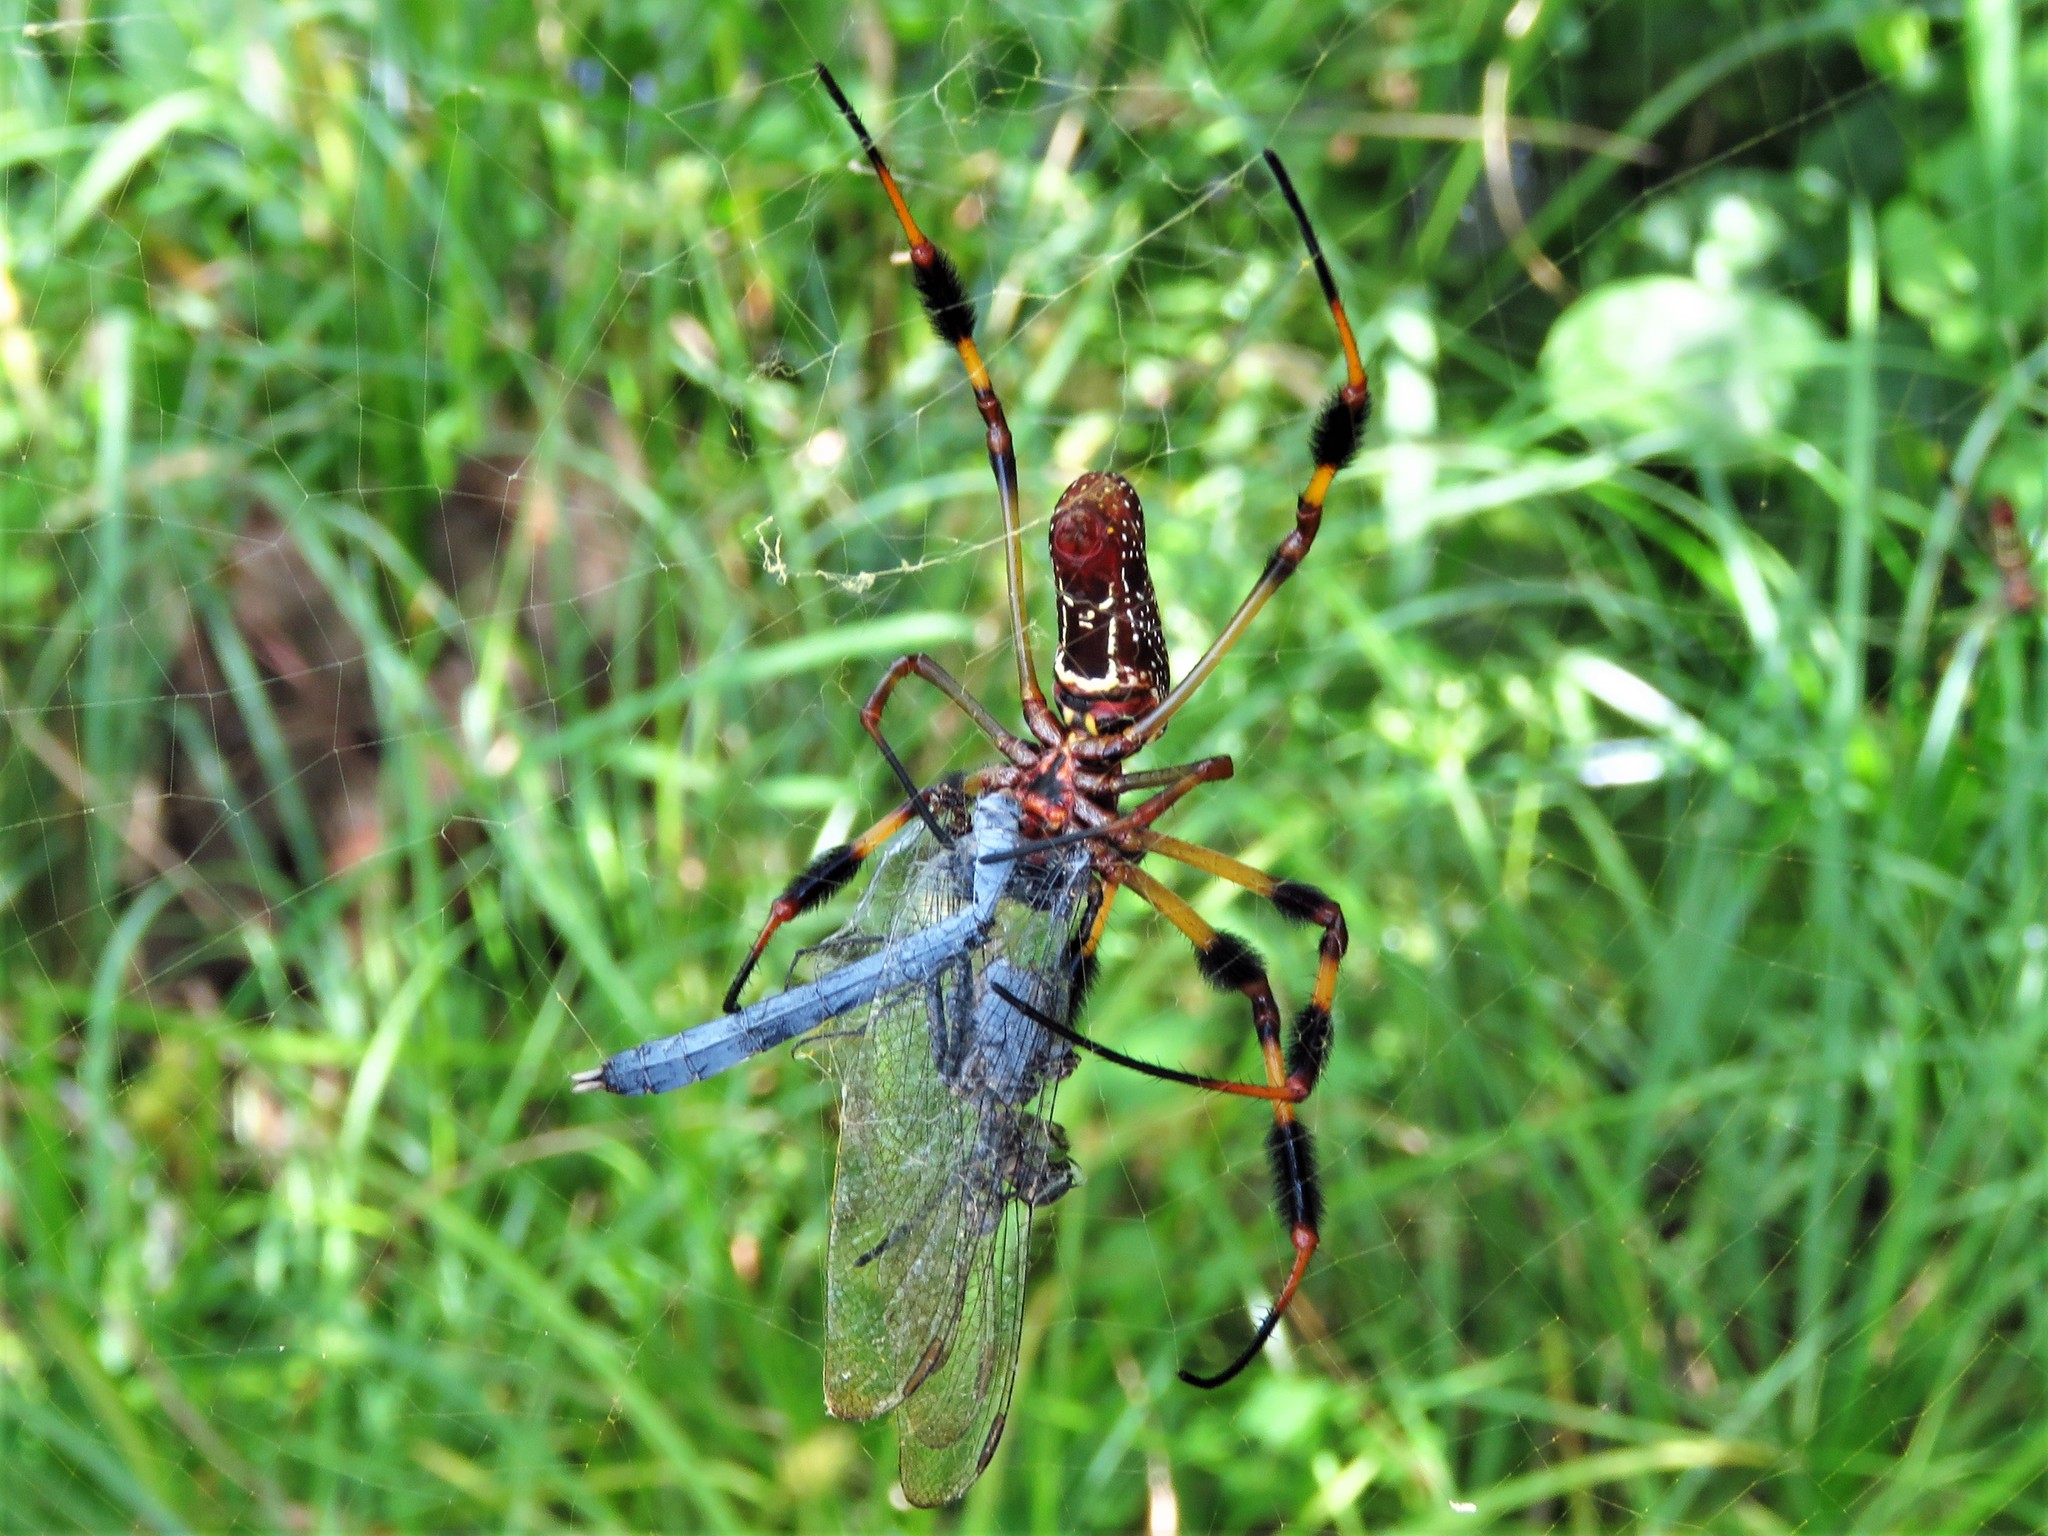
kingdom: Animalia
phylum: Arthropoda
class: Arachnida
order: Araneae
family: Araneidae
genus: Trichonephila
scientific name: Trichonephila clavipes
